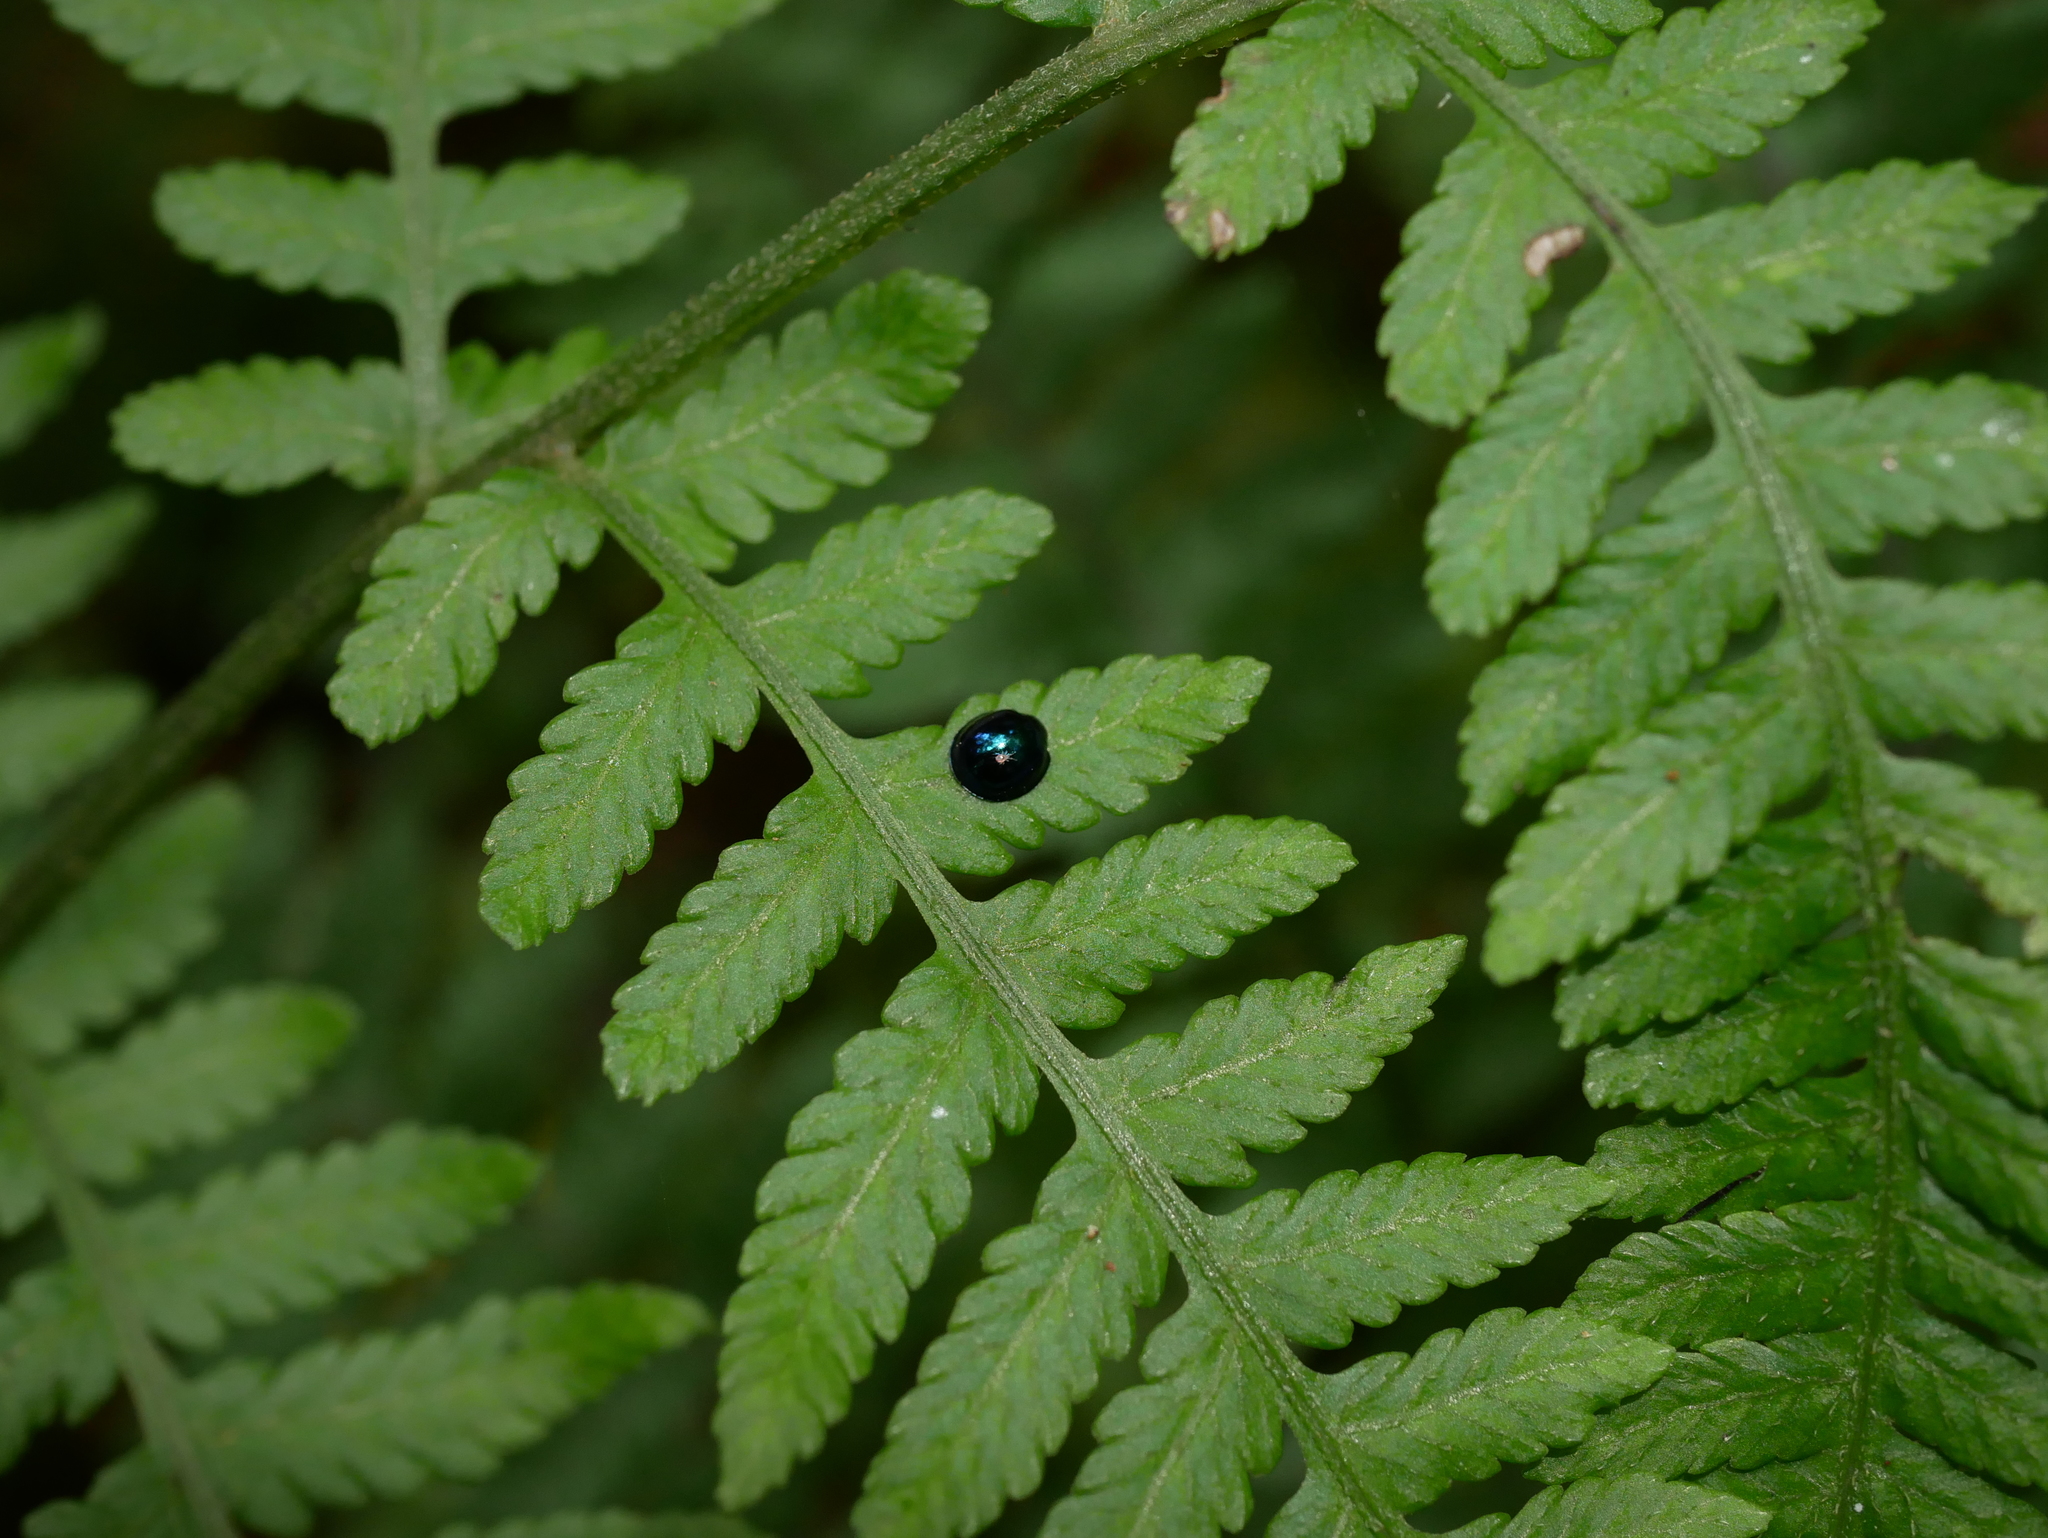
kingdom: Animalia
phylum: Arthropoda
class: Insecta
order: Coleoptera
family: Coccinellidae
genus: Halmus
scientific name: Halmus chalybeus
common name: Steel blue ladybird beetle
